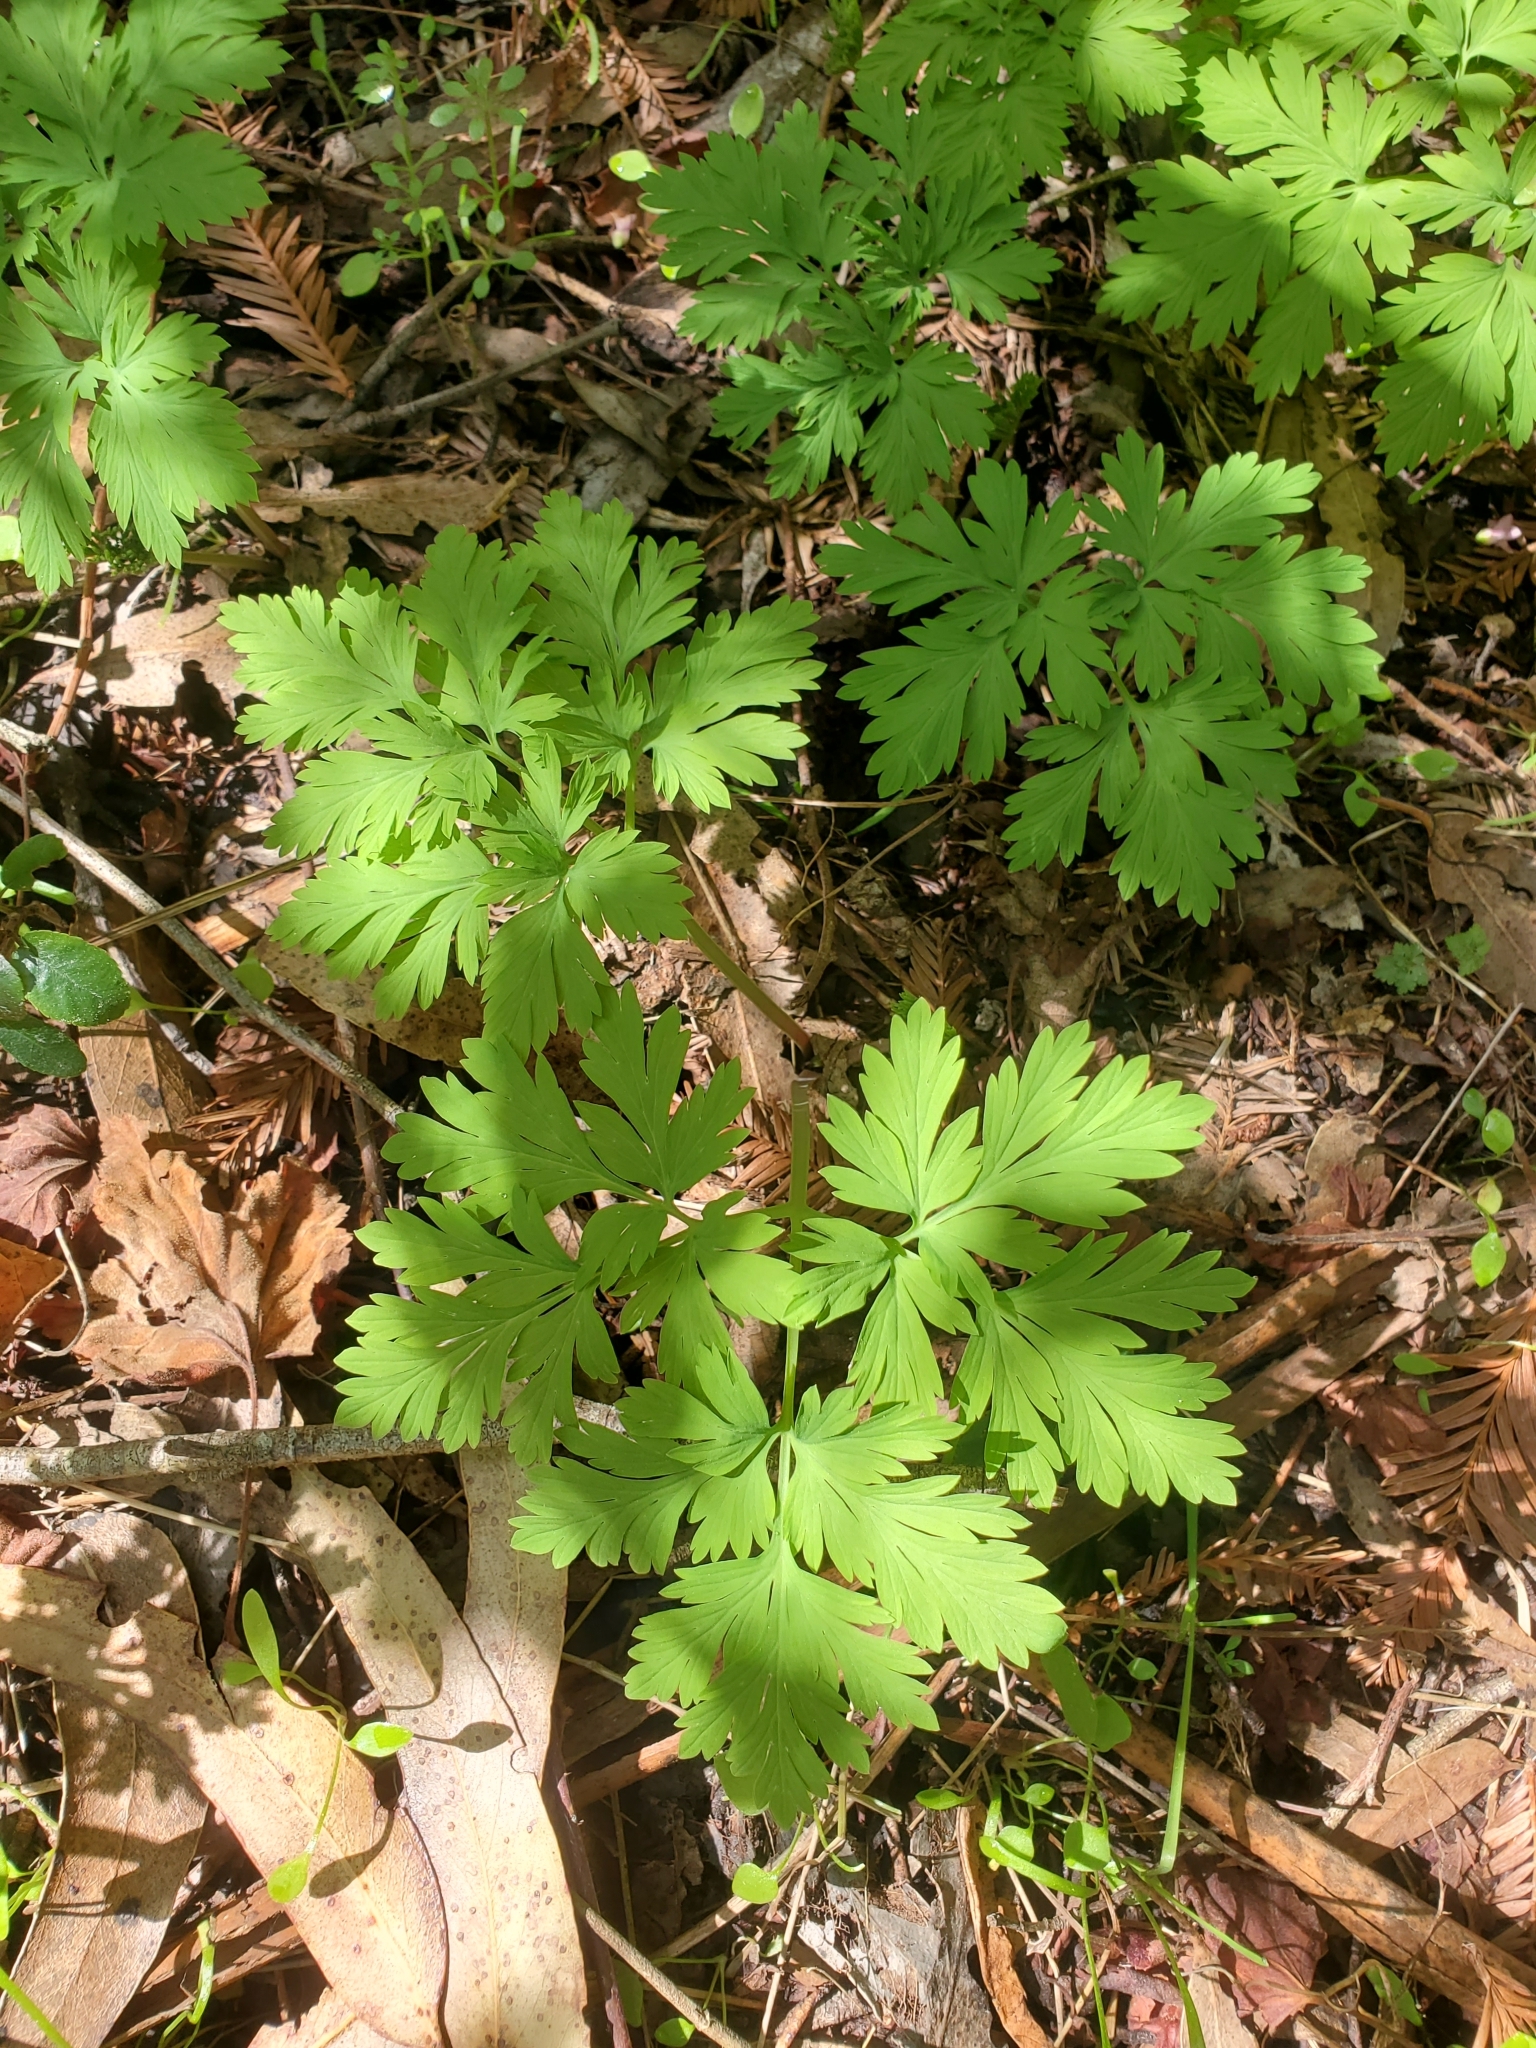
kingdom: Plantae
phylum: Tracheophyta
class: Magnoliopsida
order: Ranunculales
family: Papaveraceae
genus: Dicentra
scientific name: Dicentra formosa
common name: Bleeding-heart
